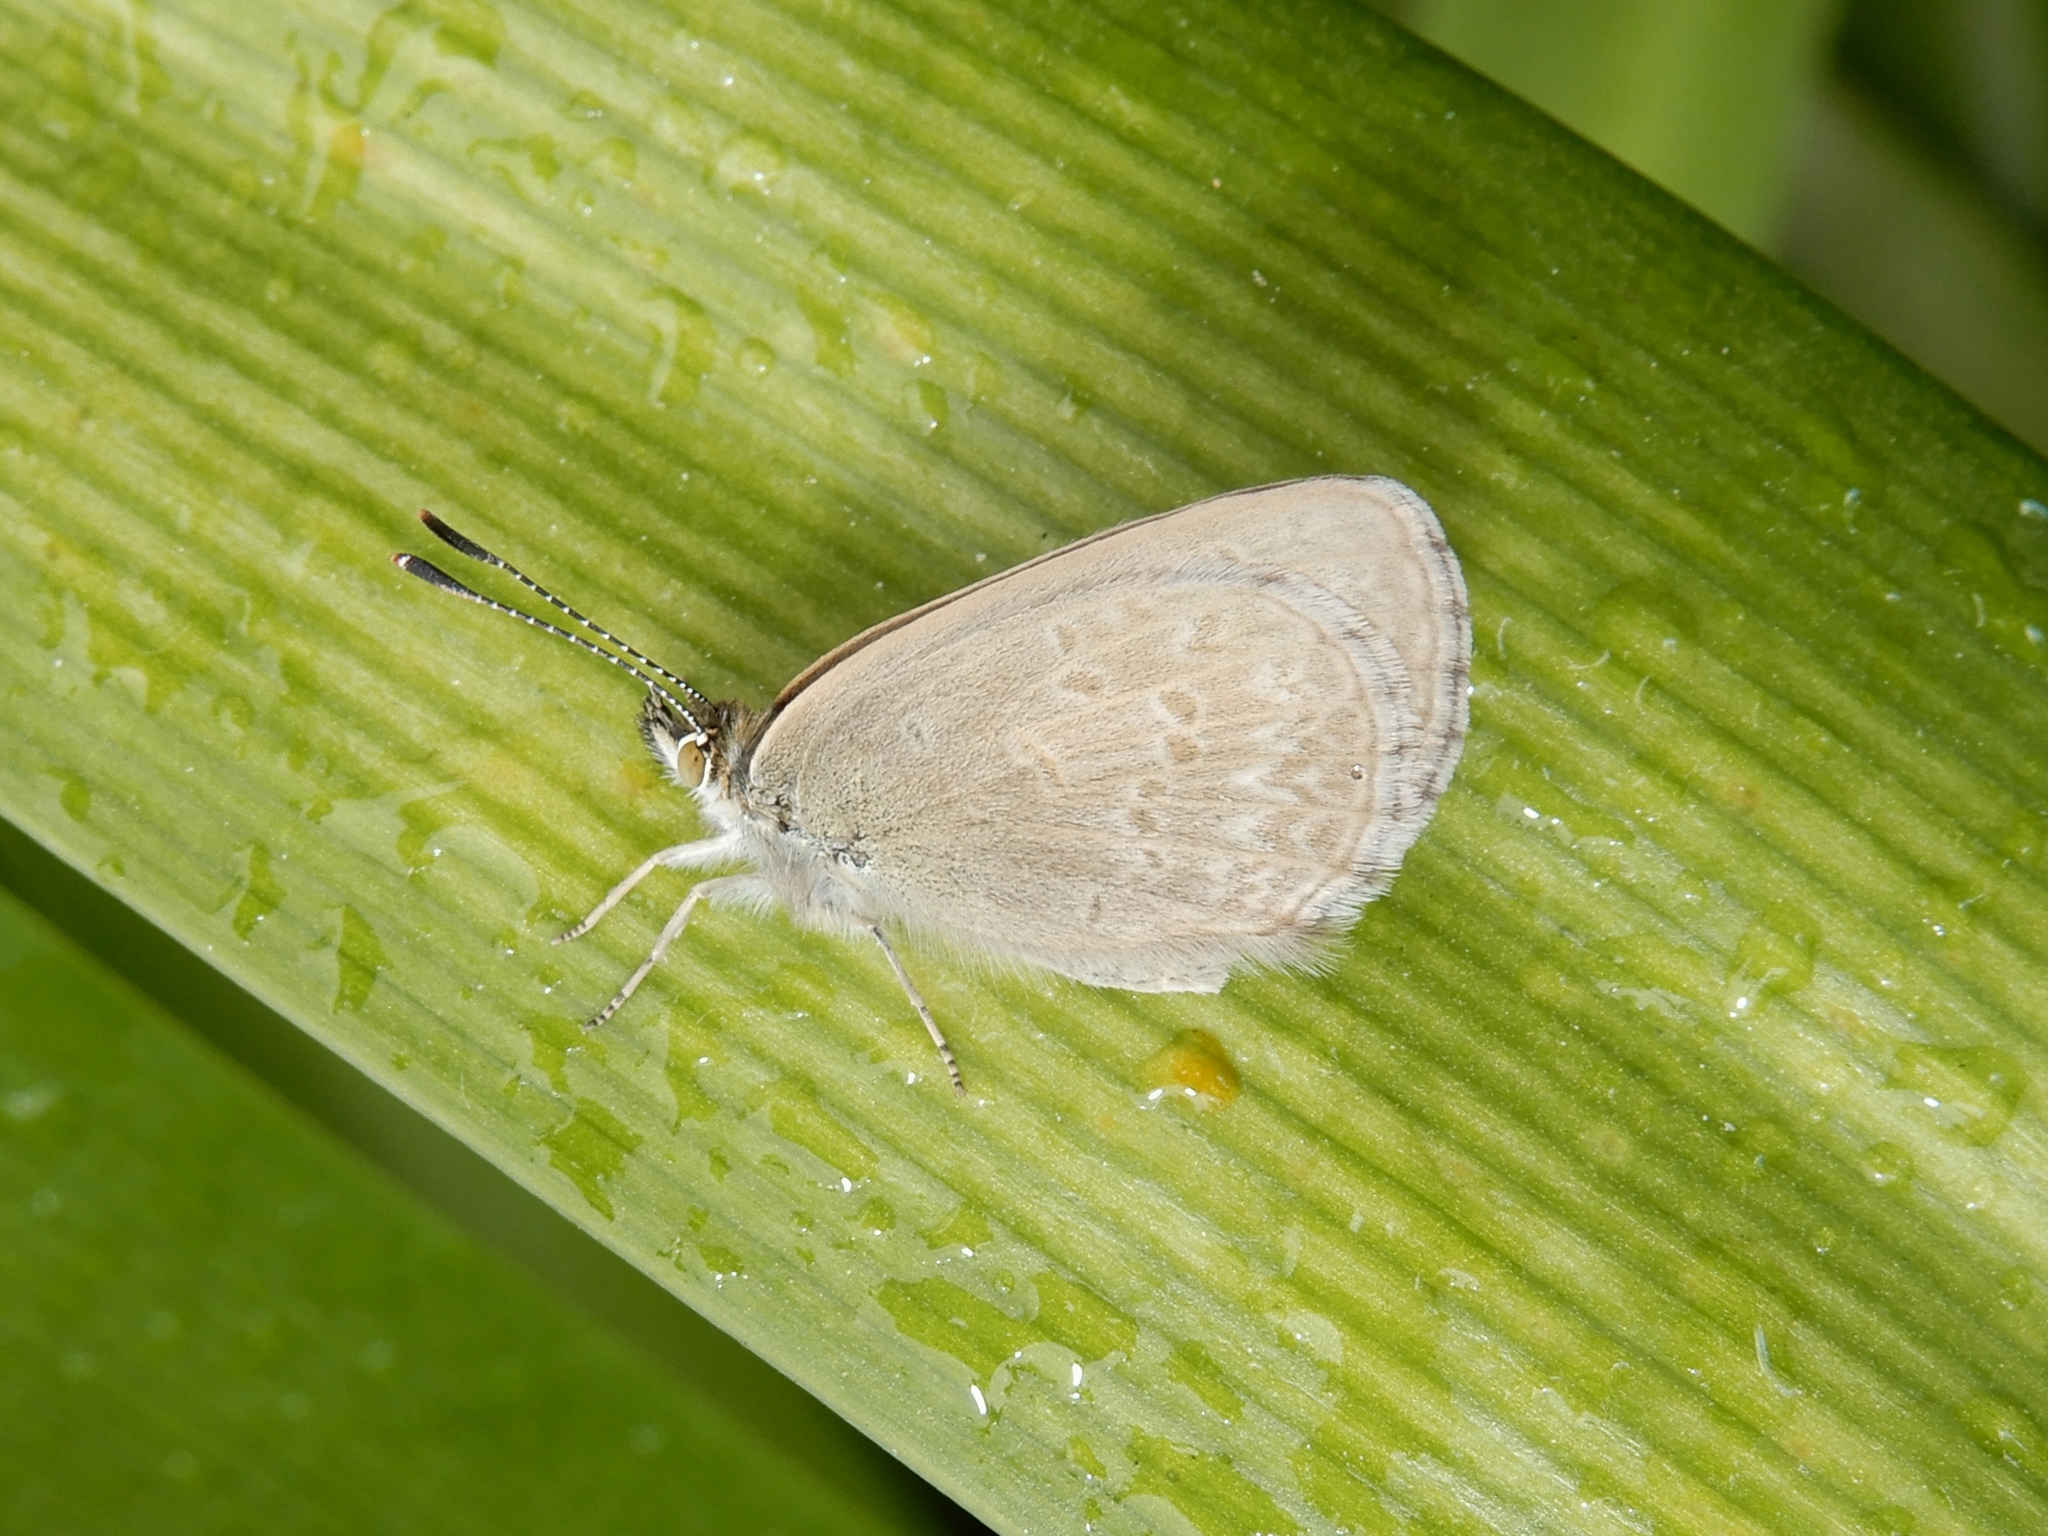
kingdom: Animalia
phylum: Arthropoda
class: Insecta
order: Lepidoptera
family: Lycaenidae
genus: Zizina
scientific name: Zizina labradus
